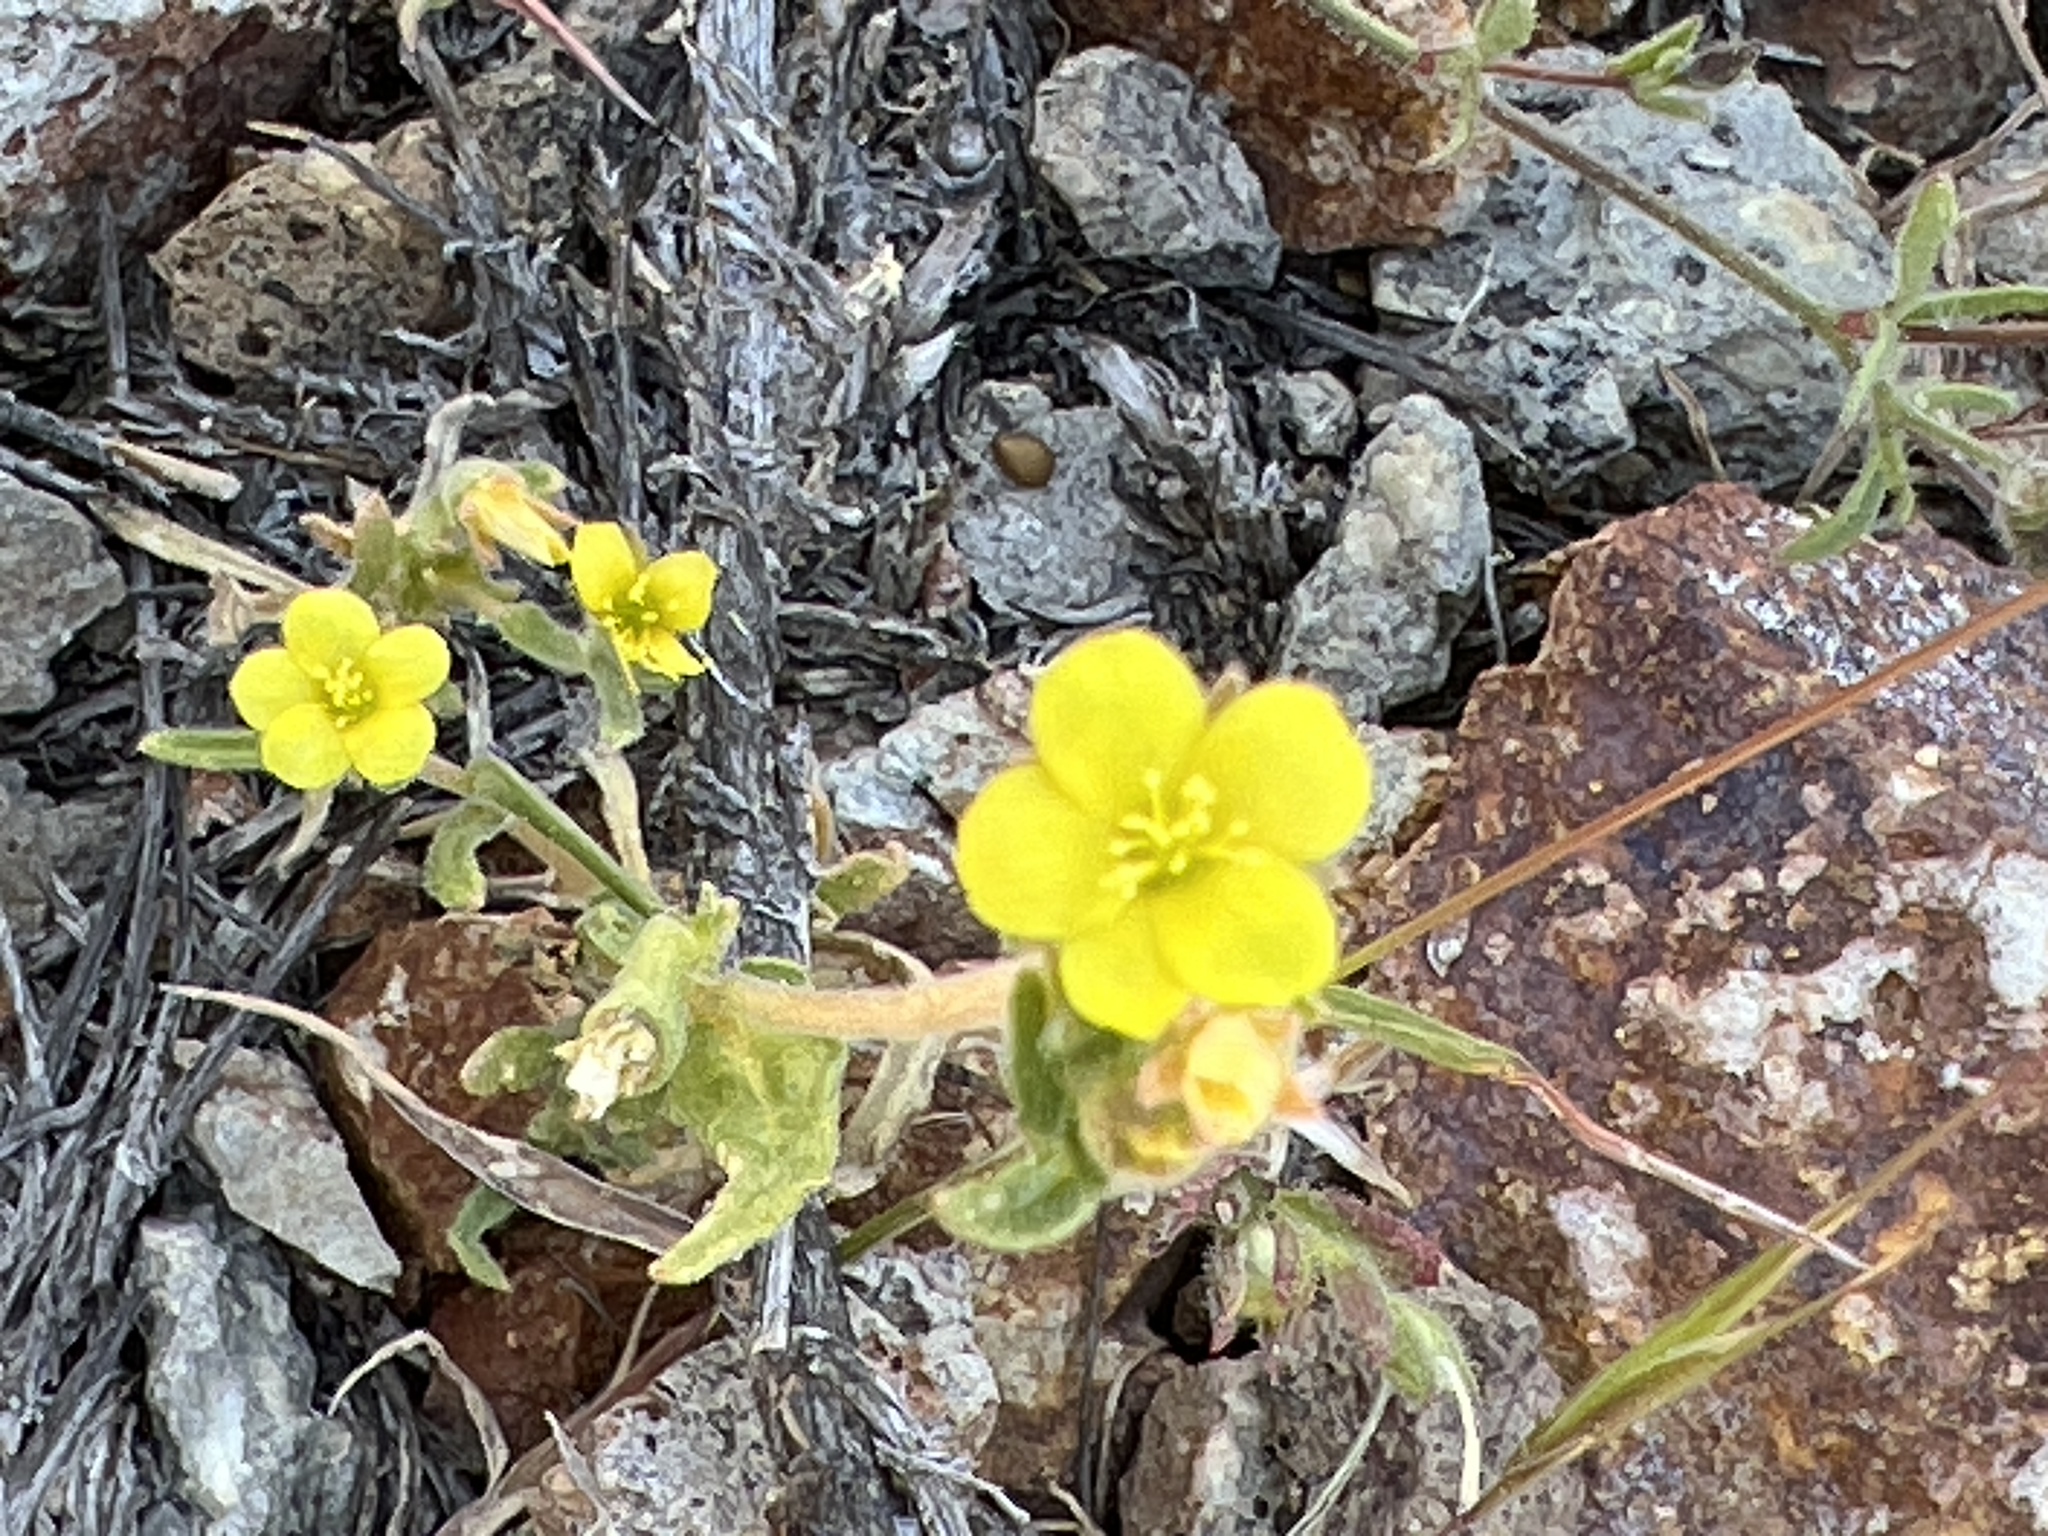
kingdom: Plantae
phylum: Tracheophyta
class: Magnoliopsida
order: Cornales
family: Loasaceae
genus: Mentzelia
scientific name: Mentzelia albicaulis
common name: White-stem blazingstar
